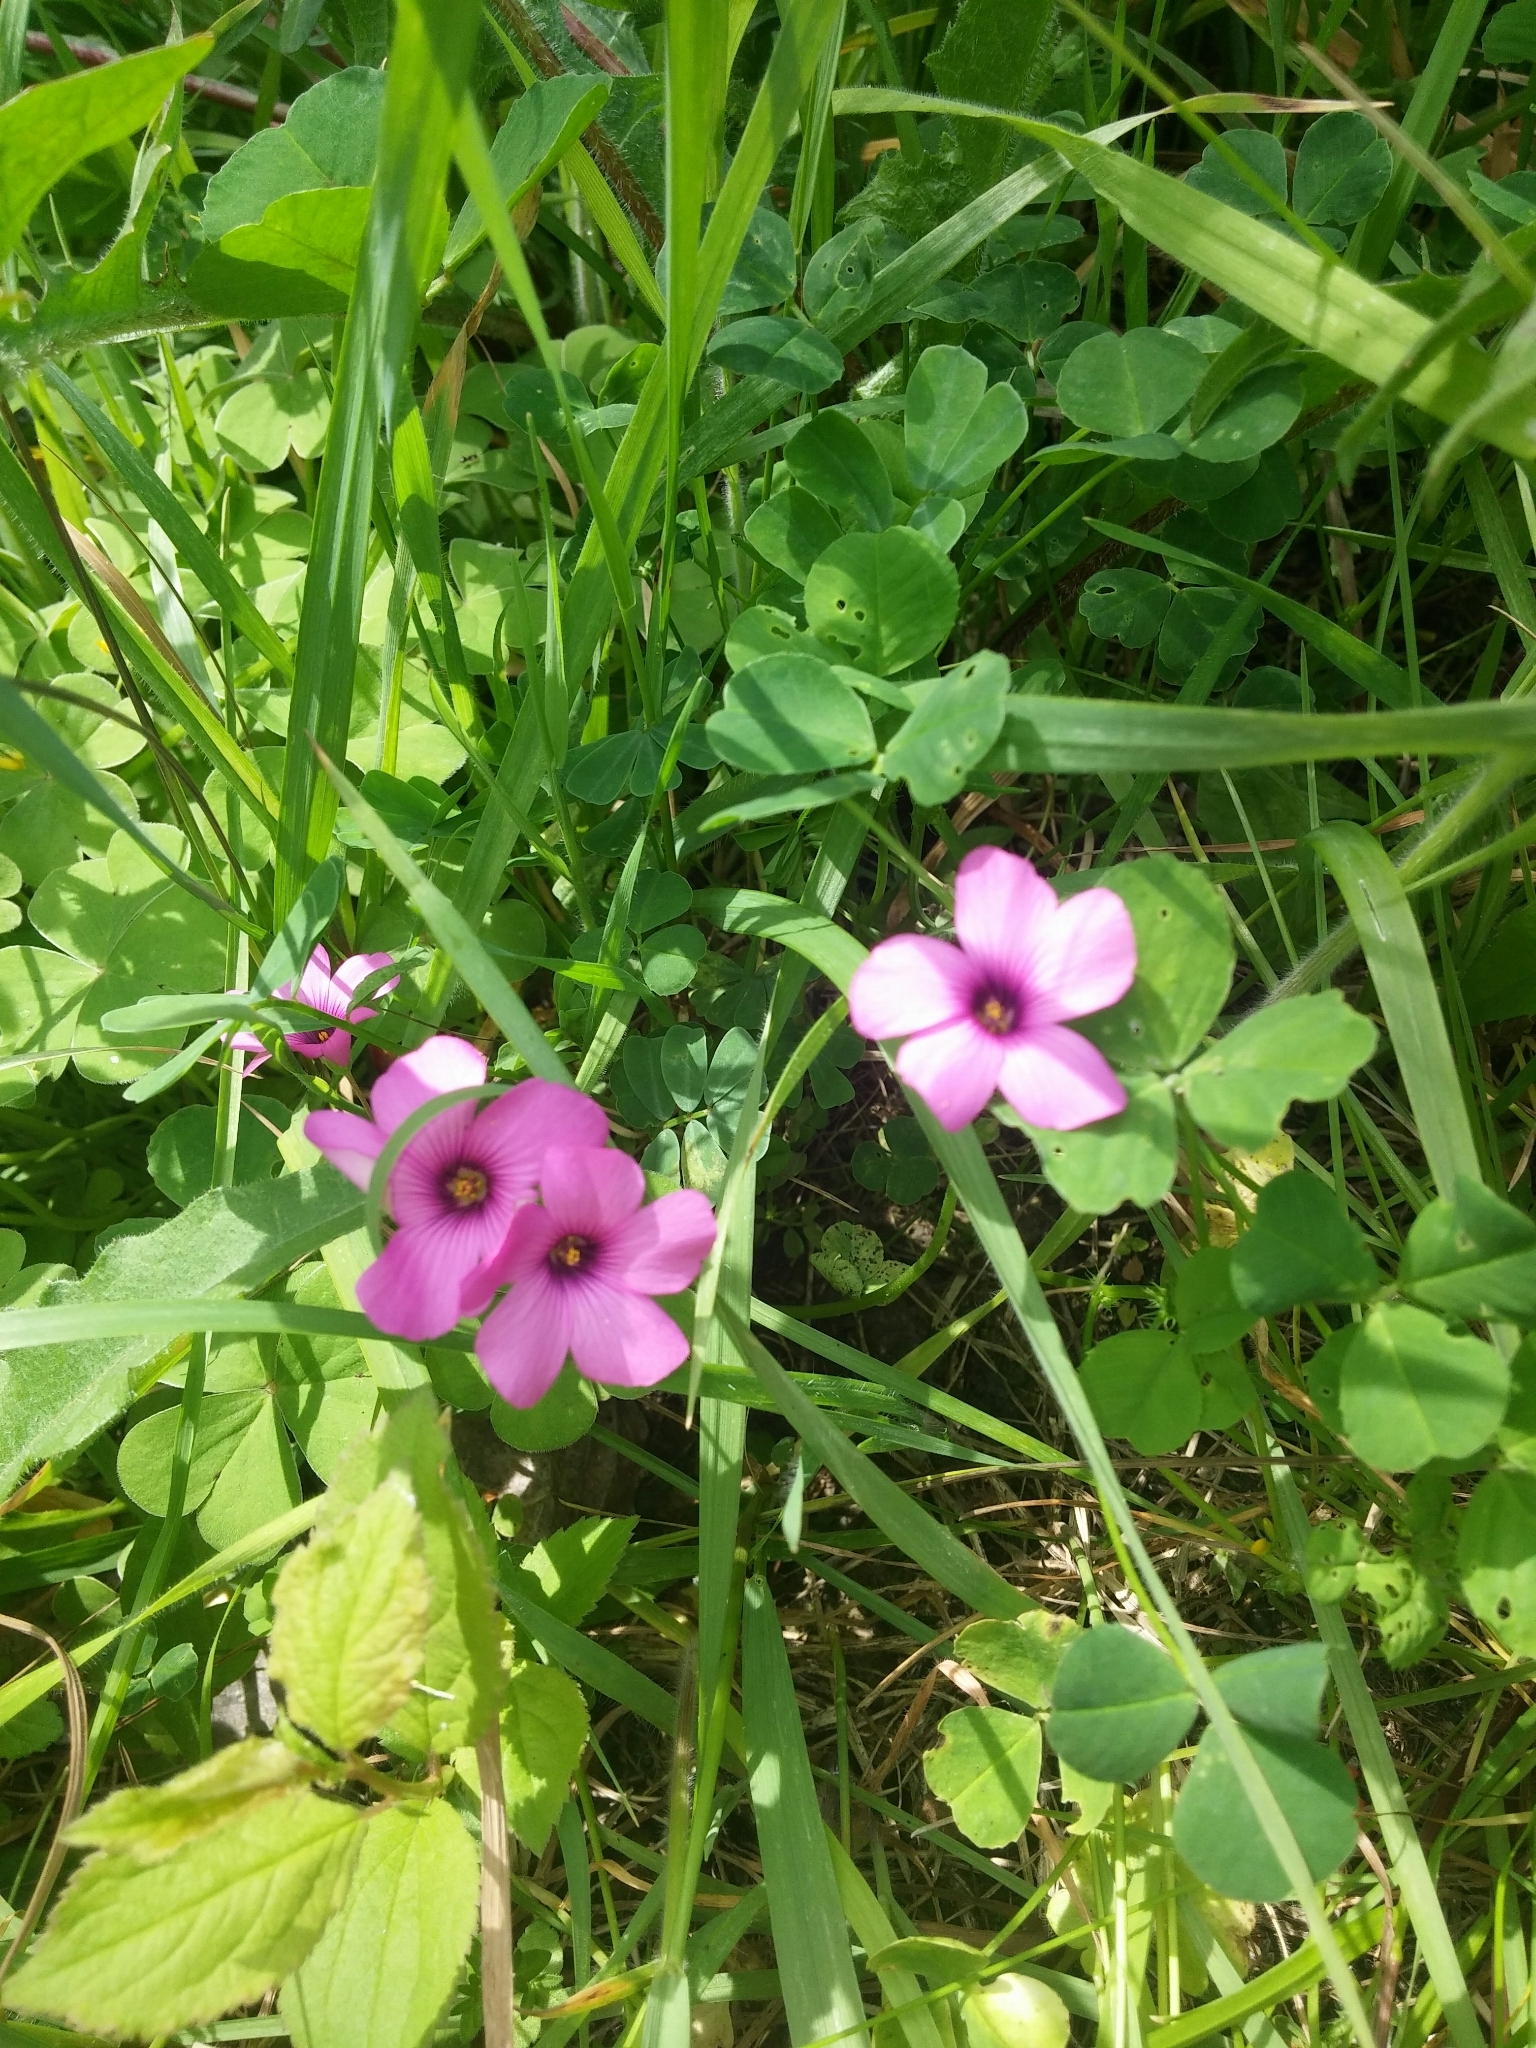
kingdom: Plantae
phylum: Tracheophyta
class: Magnoliopsida
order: Oxalidales
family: Oxalidaceae
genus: Oxalis
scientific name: Oxalis articulata
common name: Pink-sorrel
